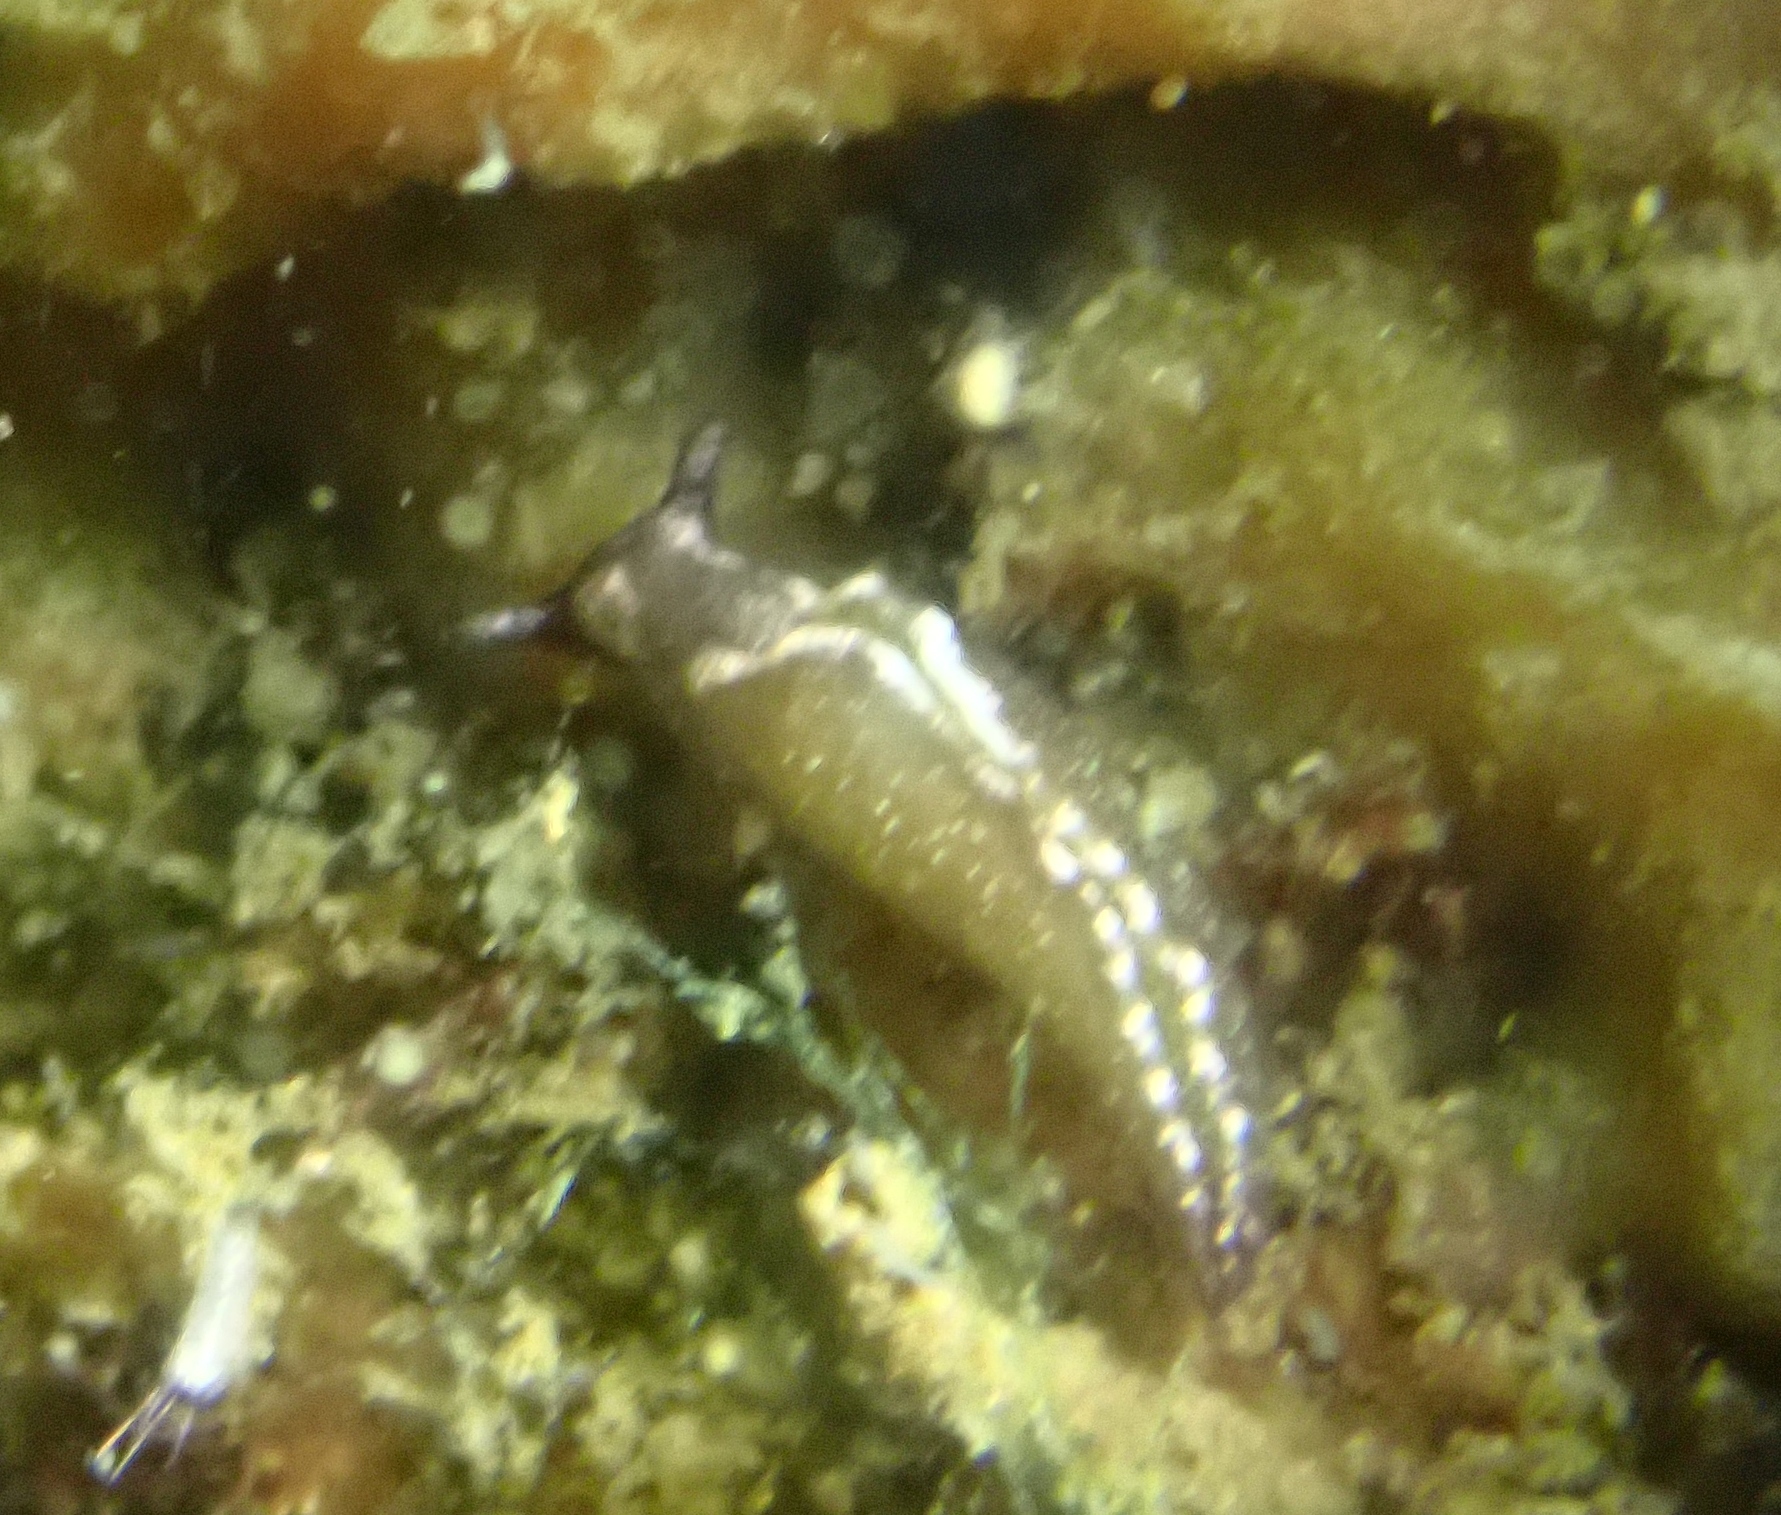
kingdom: Animalia
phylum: Mollusca
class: Gastropoda
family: Plakobranchidae
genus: Elysia
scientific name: Elysia viridis
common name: Green elysia
